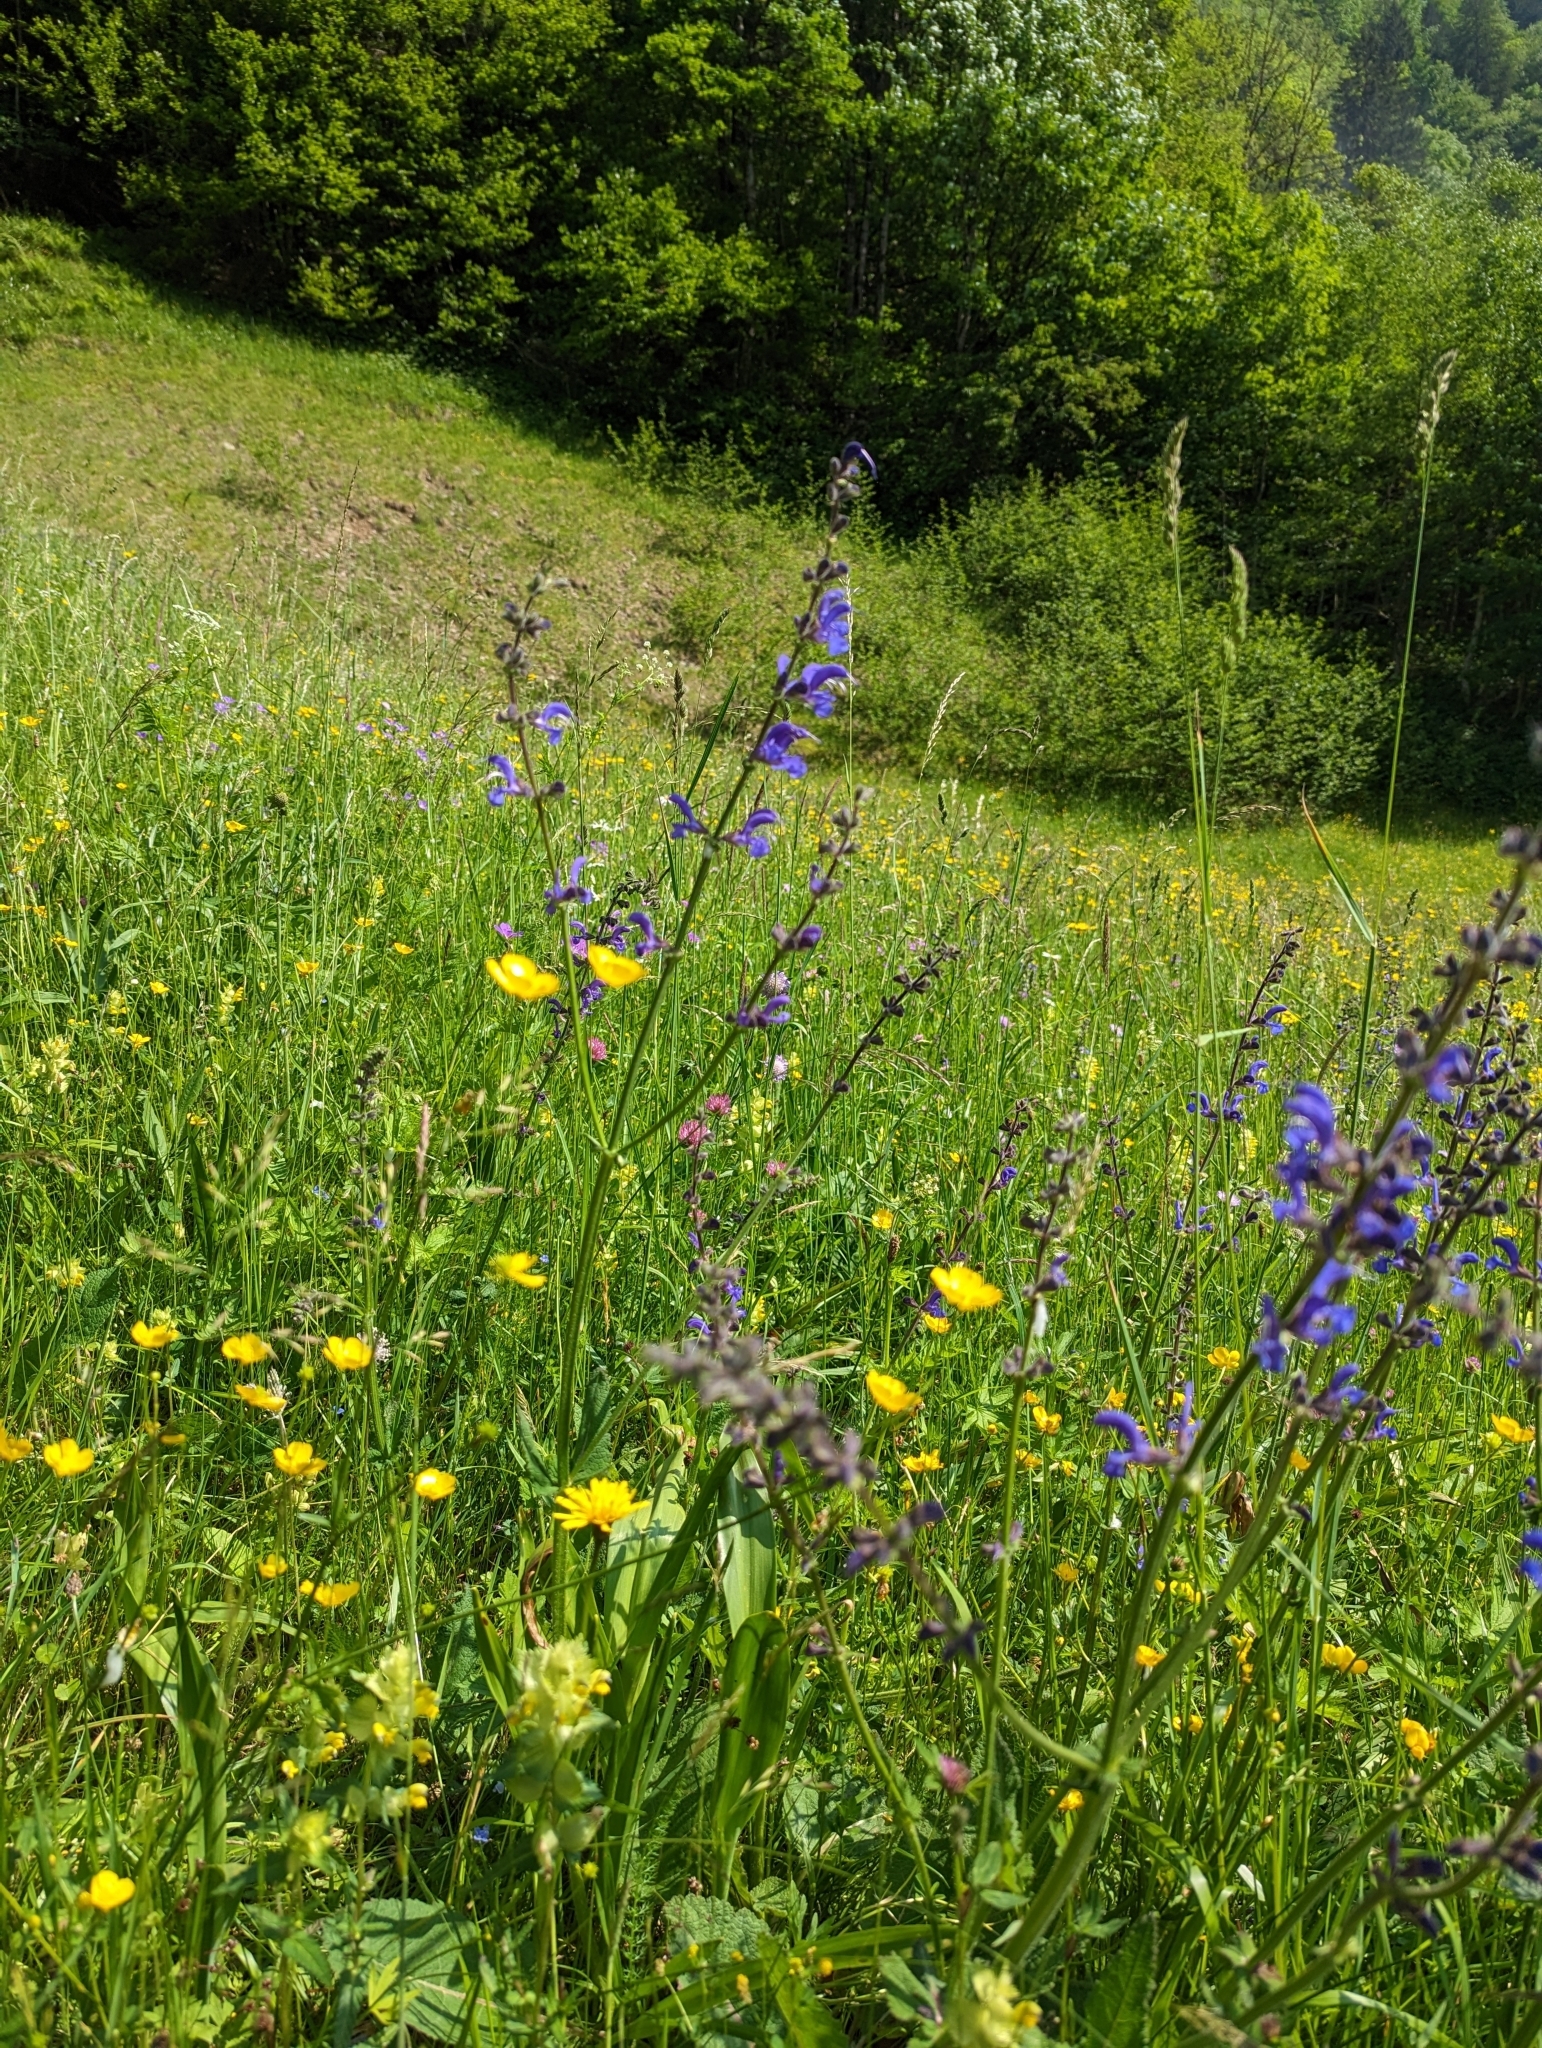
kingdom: Plantae
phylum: Tracheophyta
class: Magnoliopsida
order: Lamiales
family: Lamiaceae
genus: Salvia
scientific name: Salvia pratensis
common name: Meadow sage
